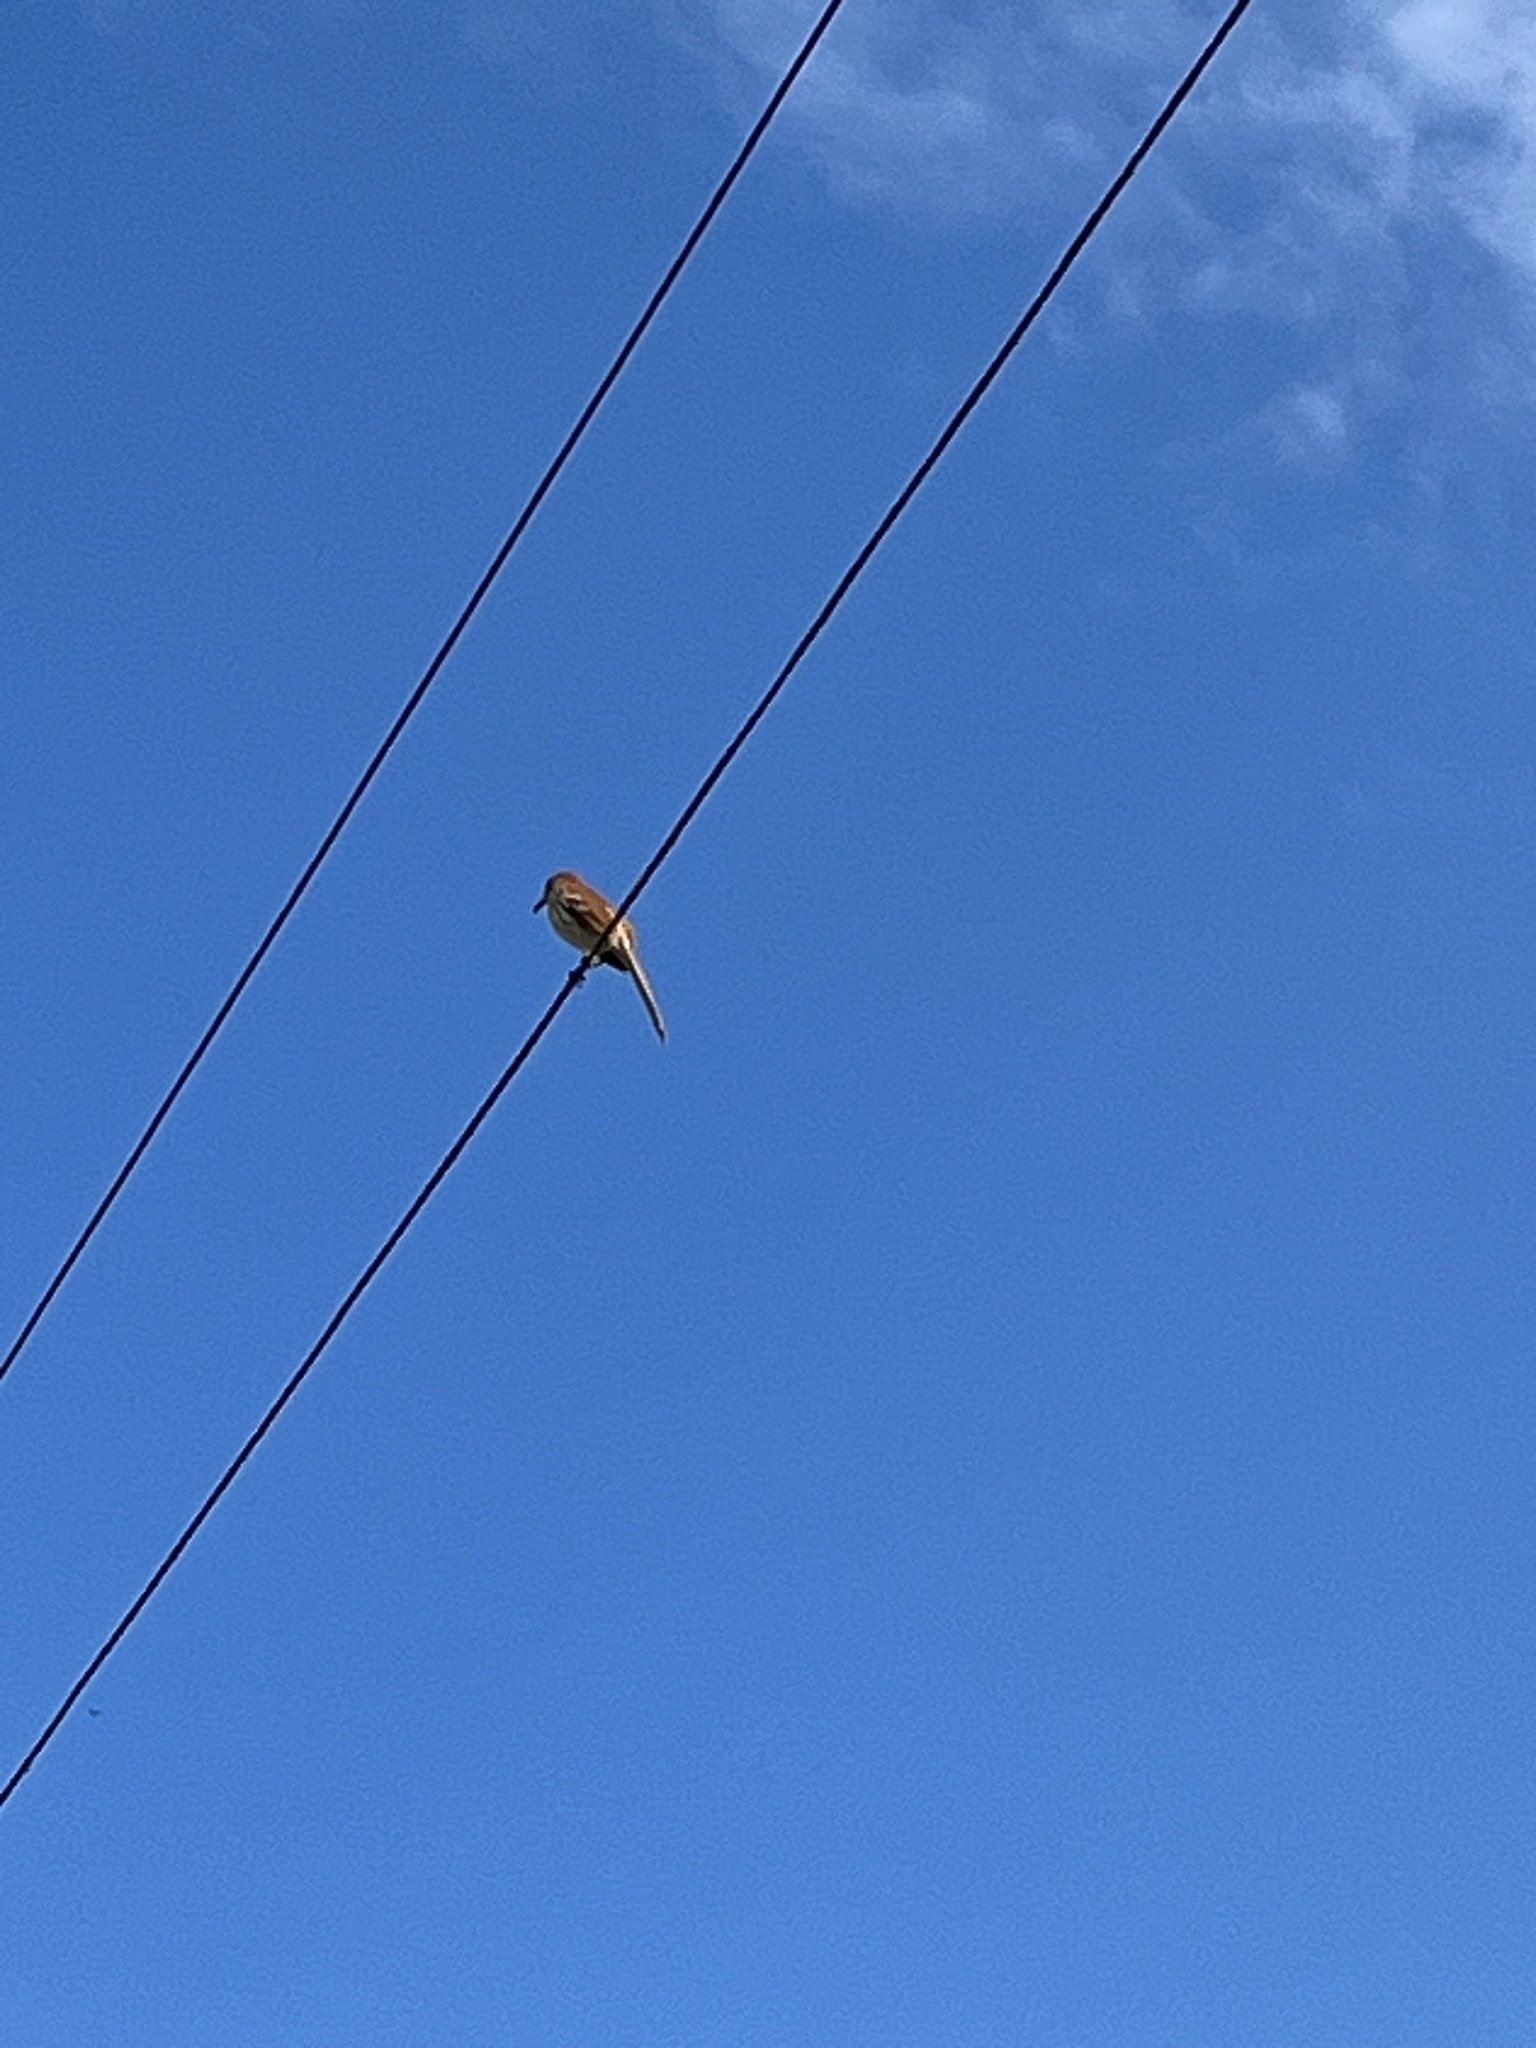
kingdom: Animalia
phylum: Chordata
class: Aves
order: Passeriformes
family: Mimidae
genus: Toxostoma
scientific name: Toxostoma rufum
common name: Brown thrasher
